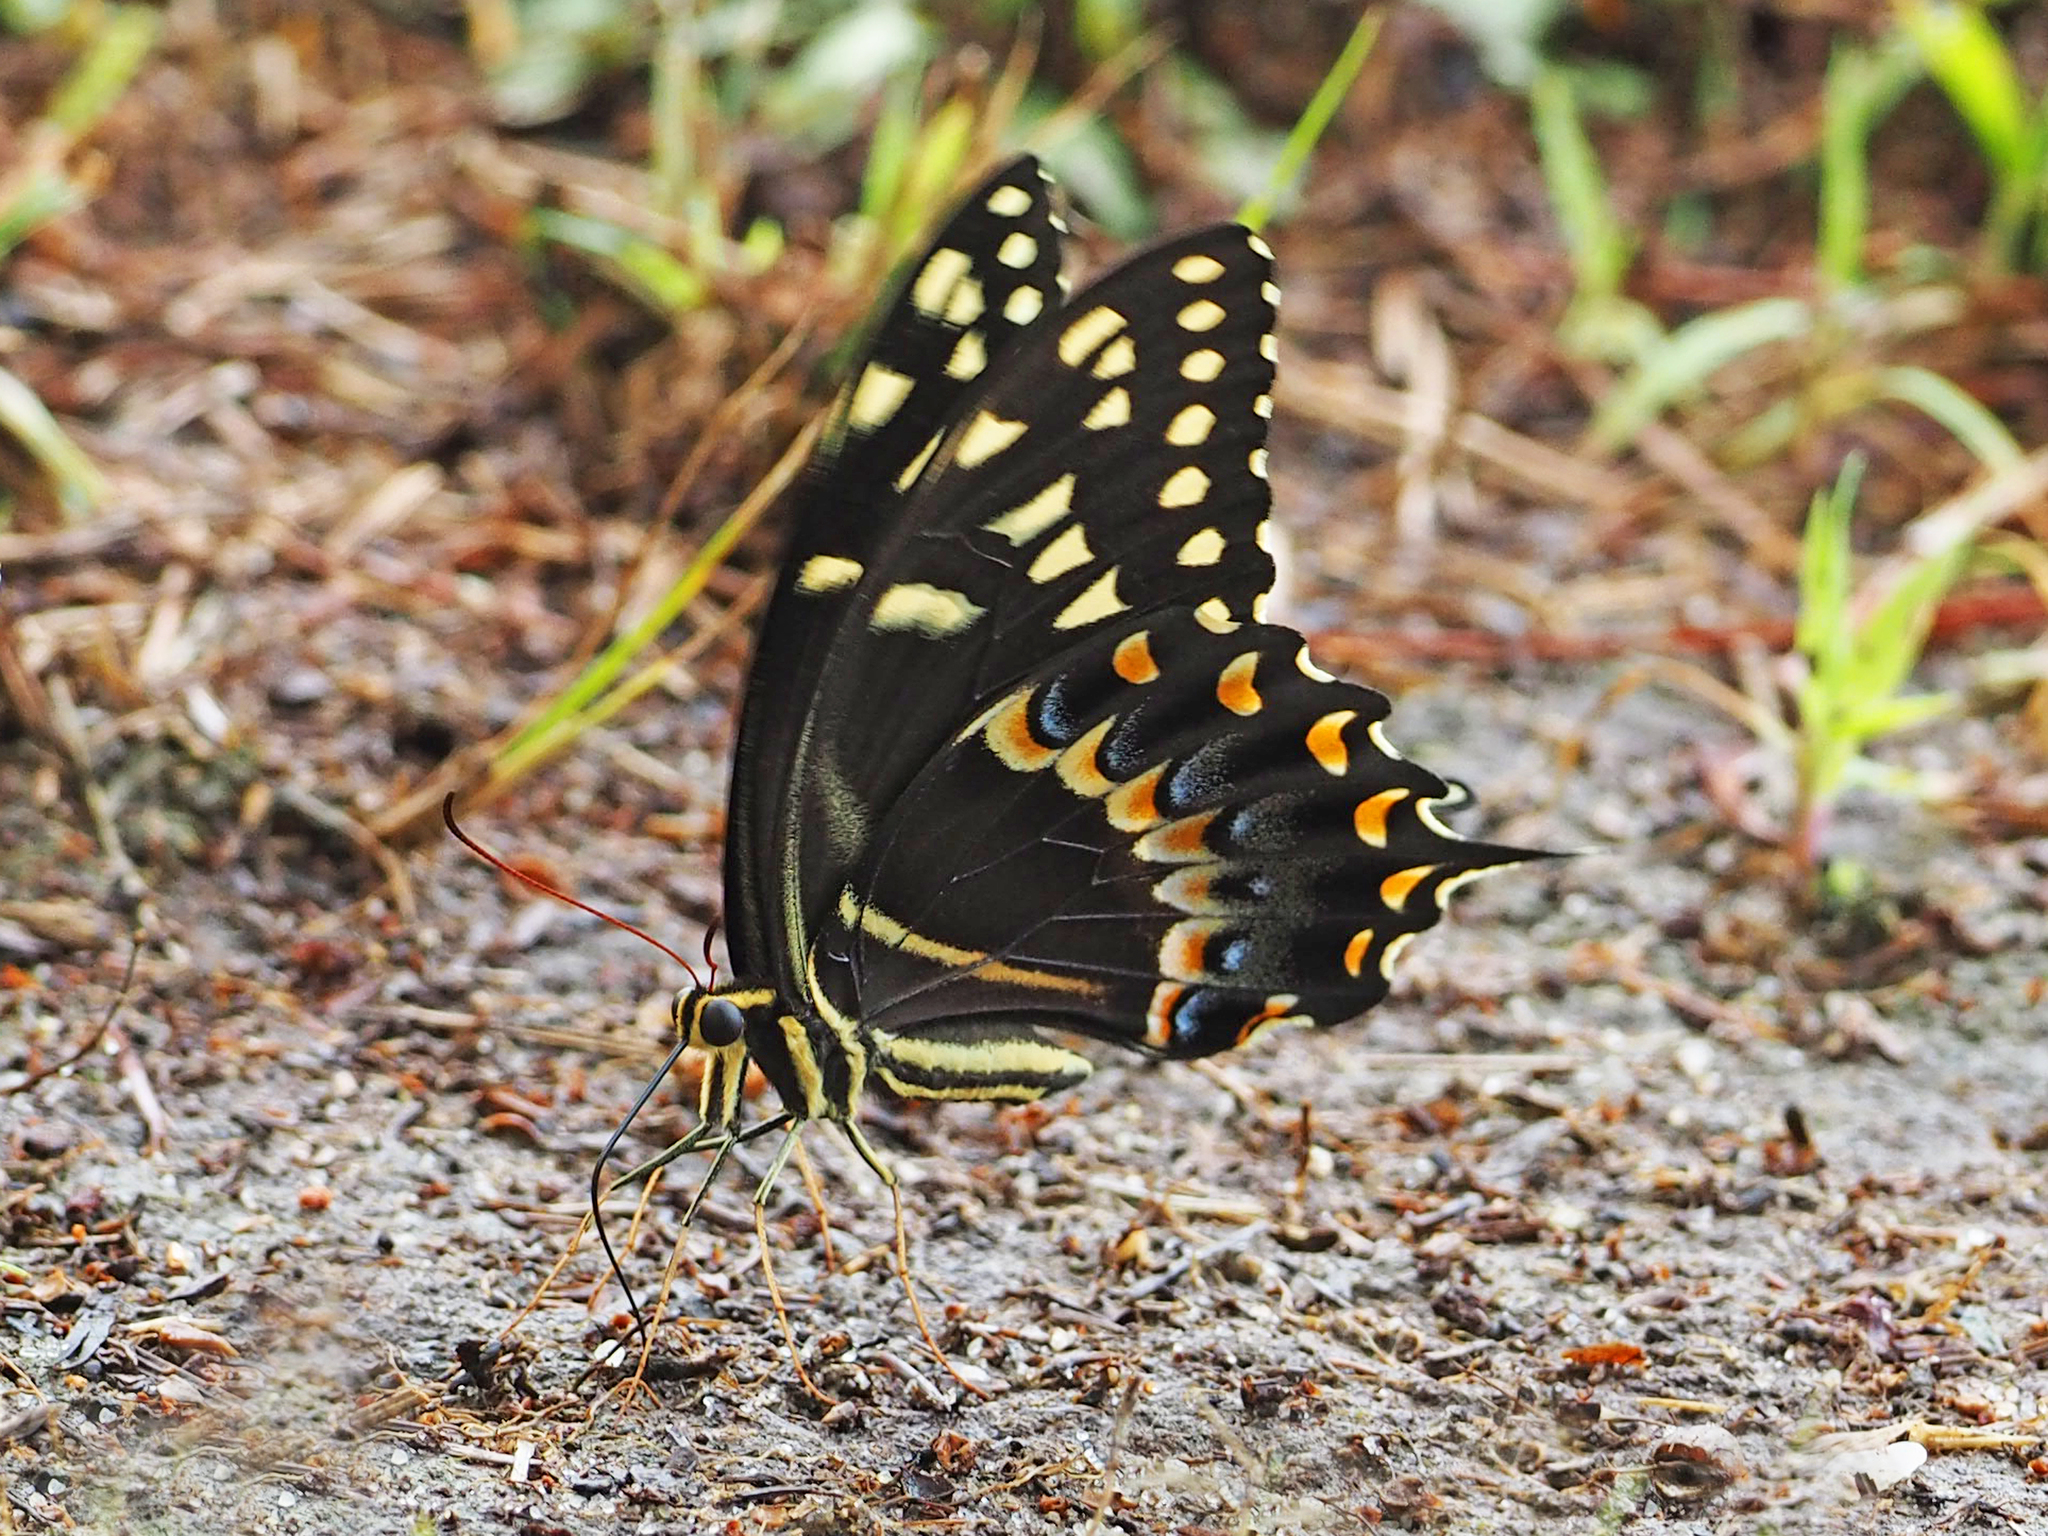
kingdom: Animalia
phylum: Arthropoda
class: Insecta
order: Lepidoptera
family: Papilionidae
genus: Papilio
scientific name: Papilio palamedes
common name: Palamedes swallowtail
